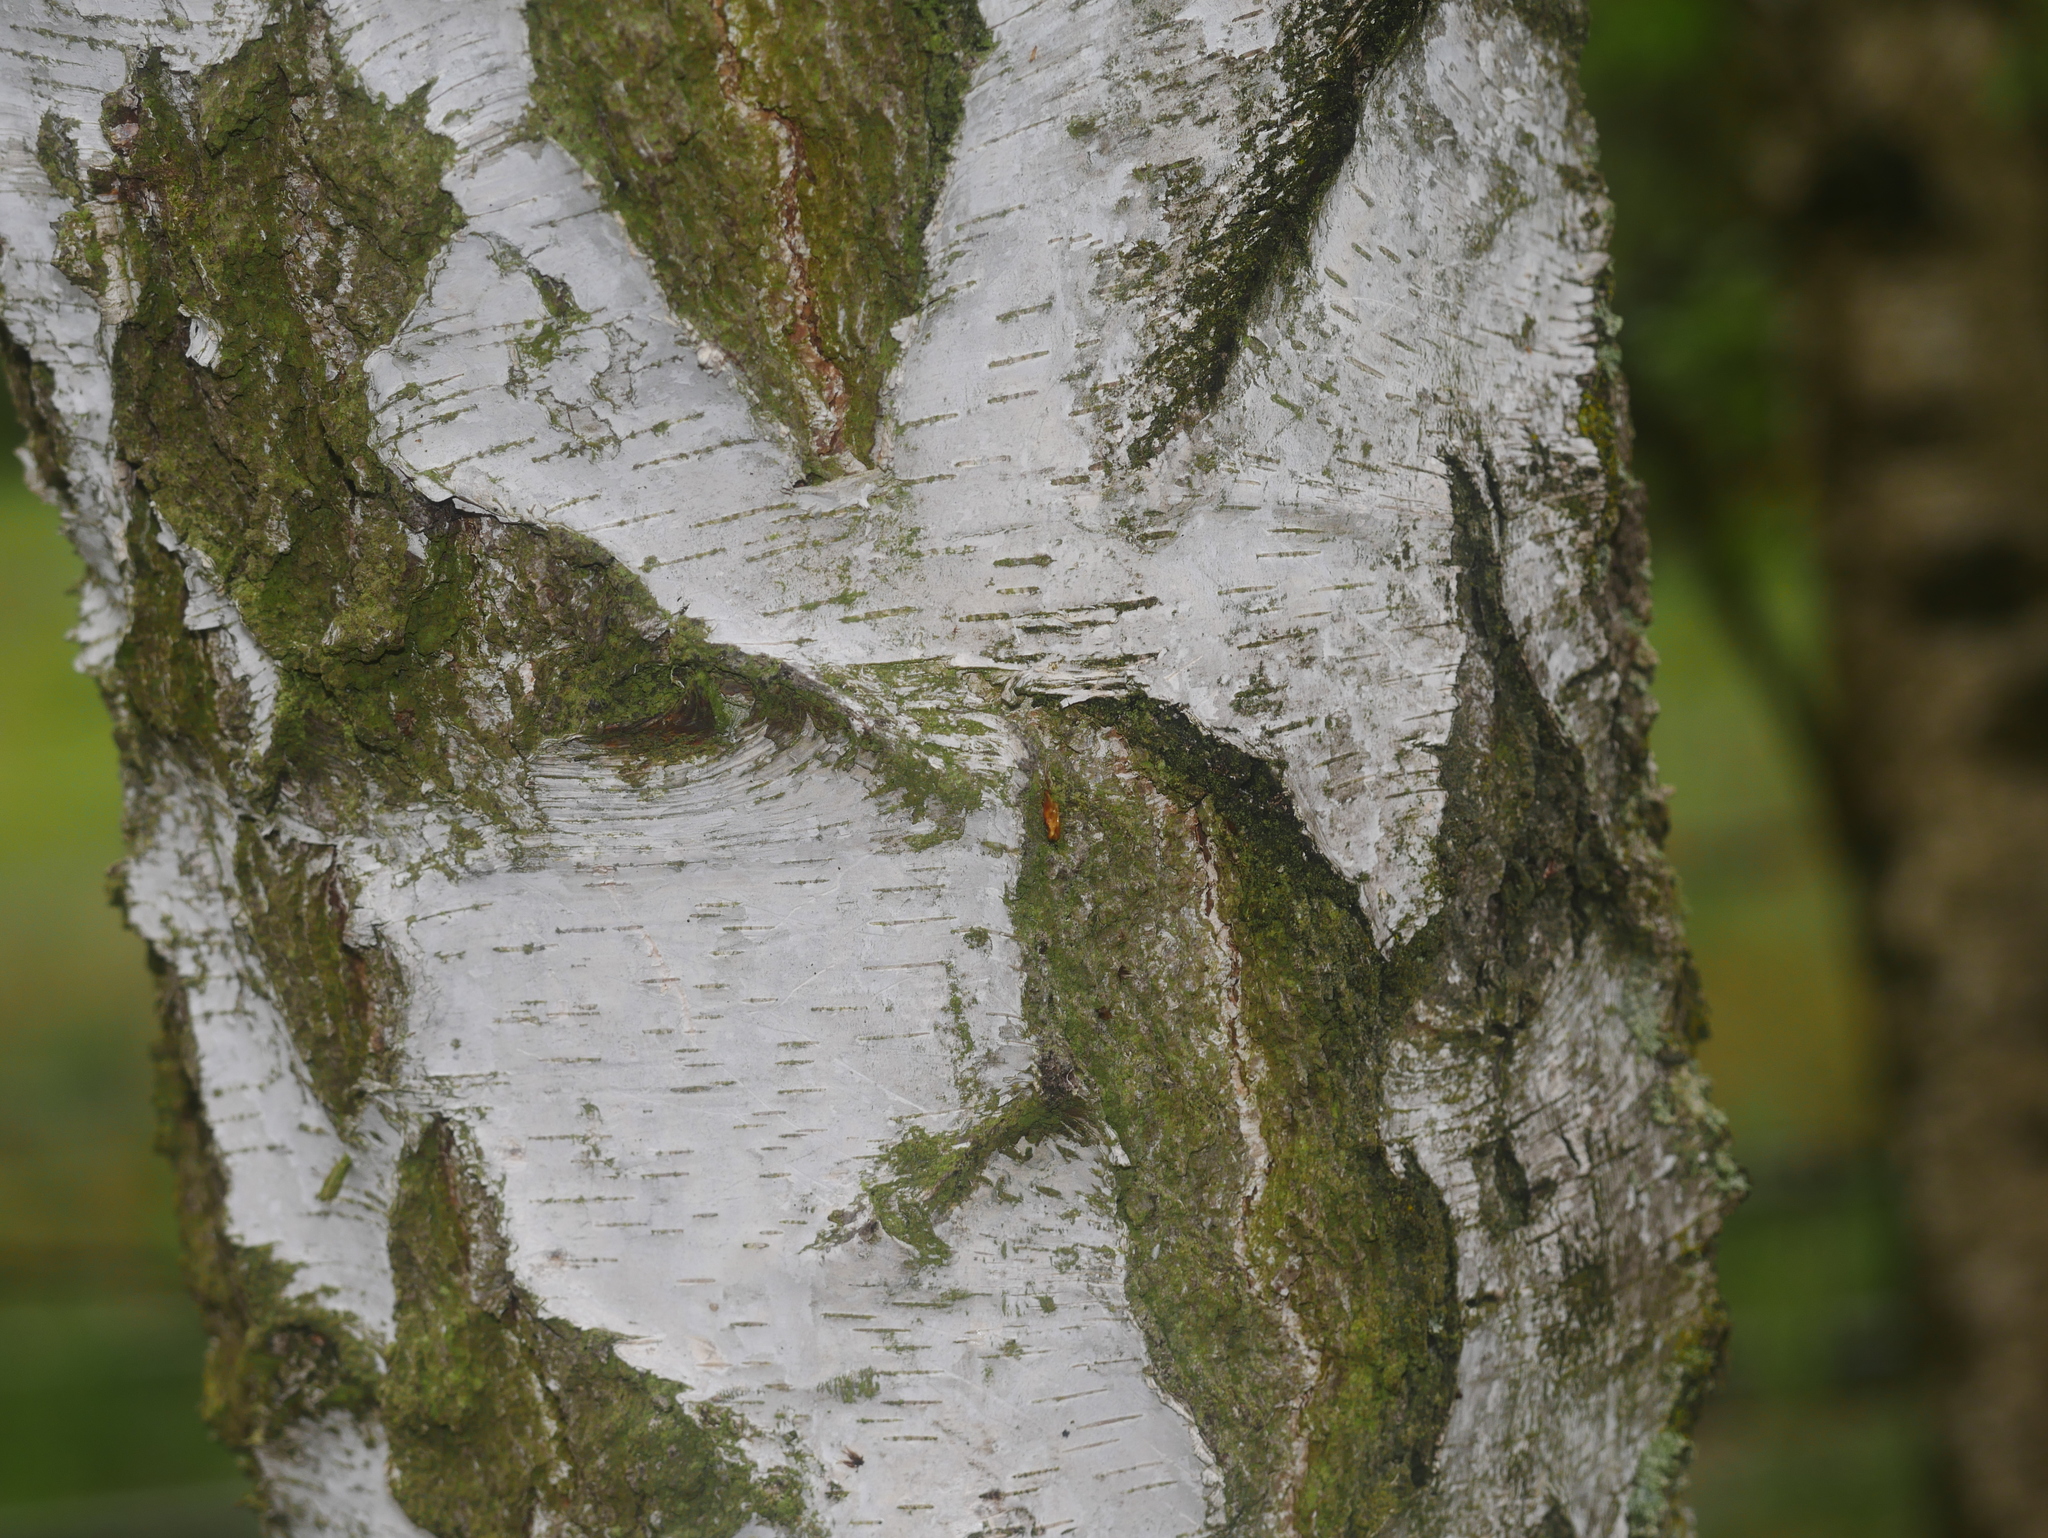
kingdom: Plantae
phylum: Tracheophyta
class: Magnoliopsida
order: Fagales
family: Betulaceae
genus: Betula
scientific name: Betula pendula
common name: Silver birch
